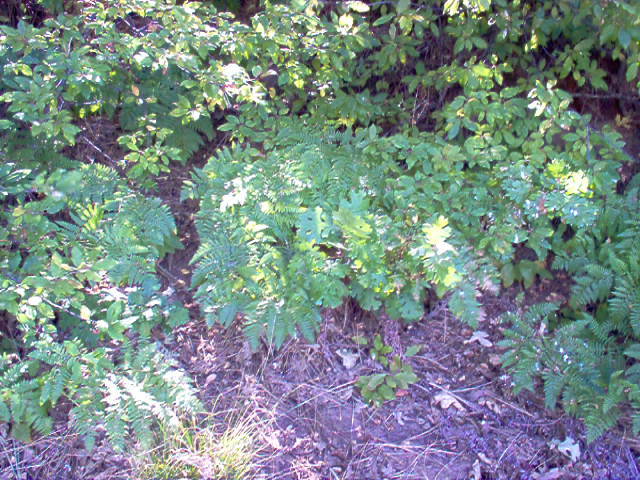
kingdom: Plantae
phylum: Tracheophyta
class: Polypodiopsida
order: Polypodiales
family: Dennstaedtiaceae
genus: Pteridium
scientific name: Pteridium aquilinum
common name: Bracken
